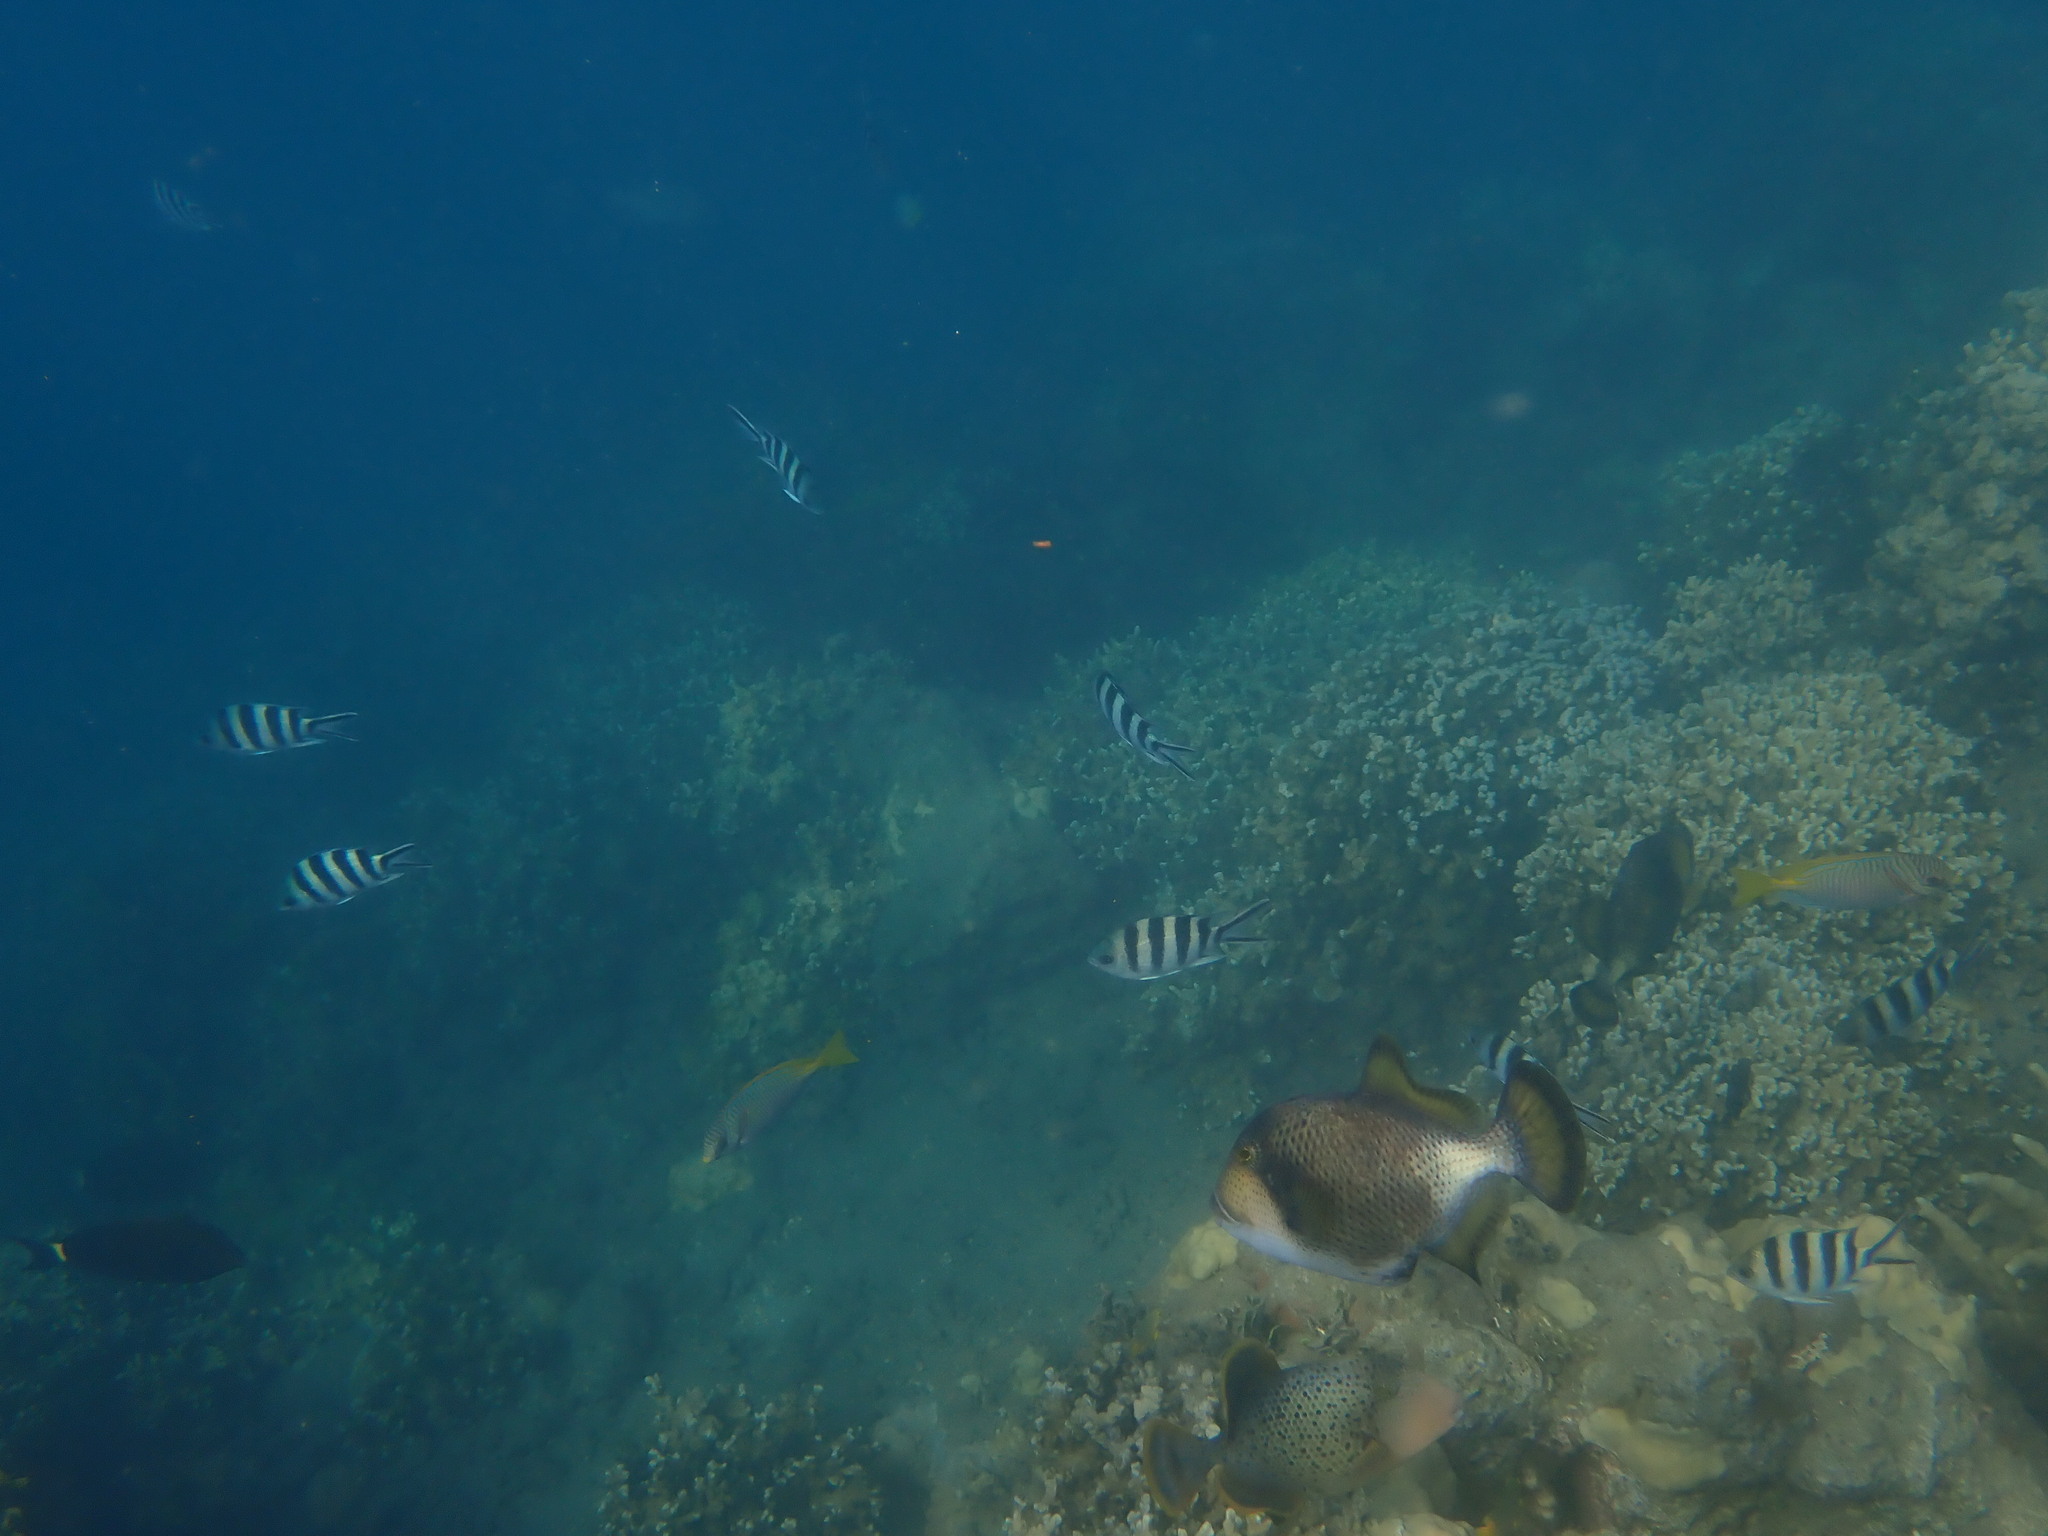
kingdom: Animalia
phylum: Chordata
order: Tetraodontiformes
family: Balistidae
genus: Balistoides
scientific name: Balistoides viridescens
